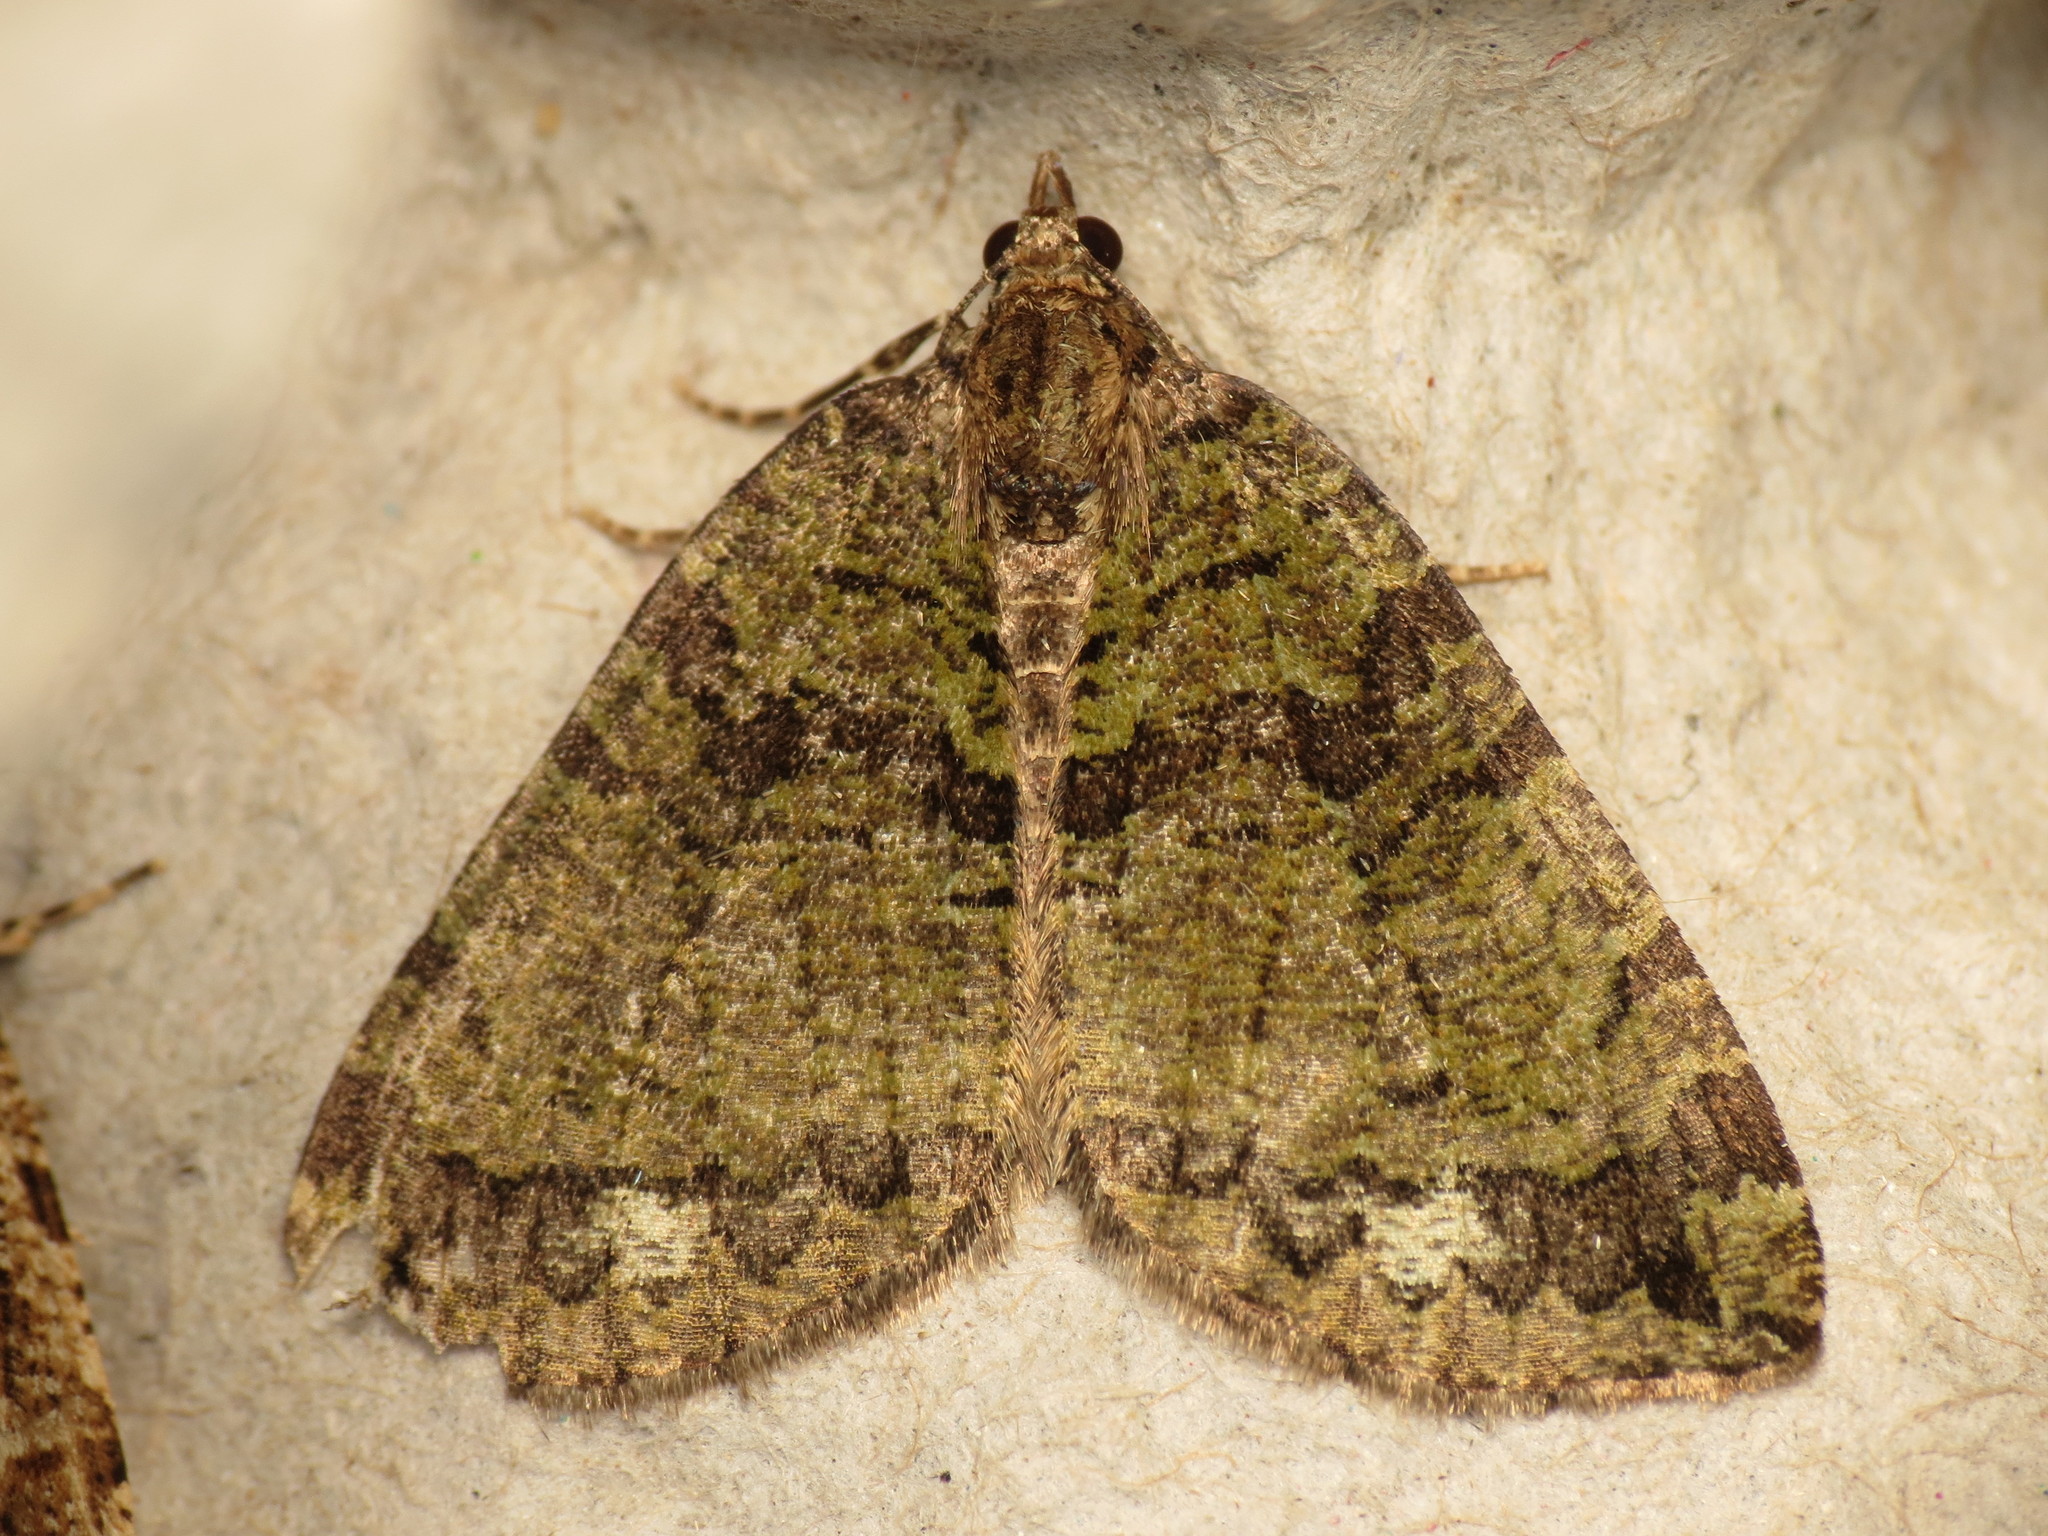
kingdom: Animalia
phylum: Arthropoda
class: Insecta
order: Lepidoptera
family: Geometridae
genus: Hydriomena
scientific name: Hydriomena furcata
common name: July highflyer
